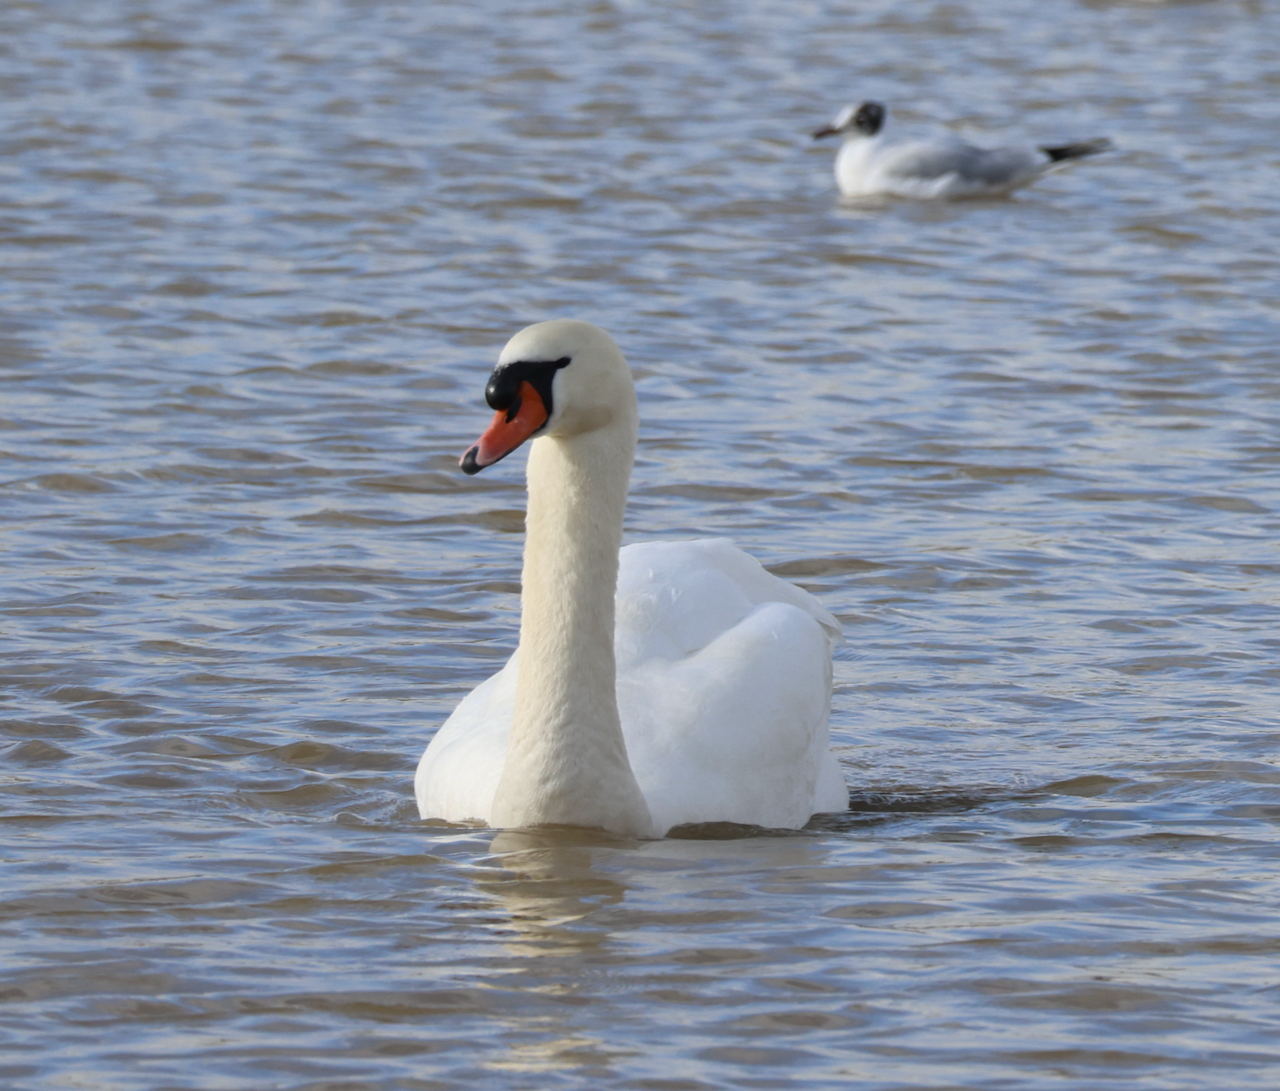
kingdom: Animalia
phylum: Chordata
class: Aves
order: Anseriformes
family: Anatidae
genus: Cygnus
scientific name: Cygnus olor
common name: Mute swan
